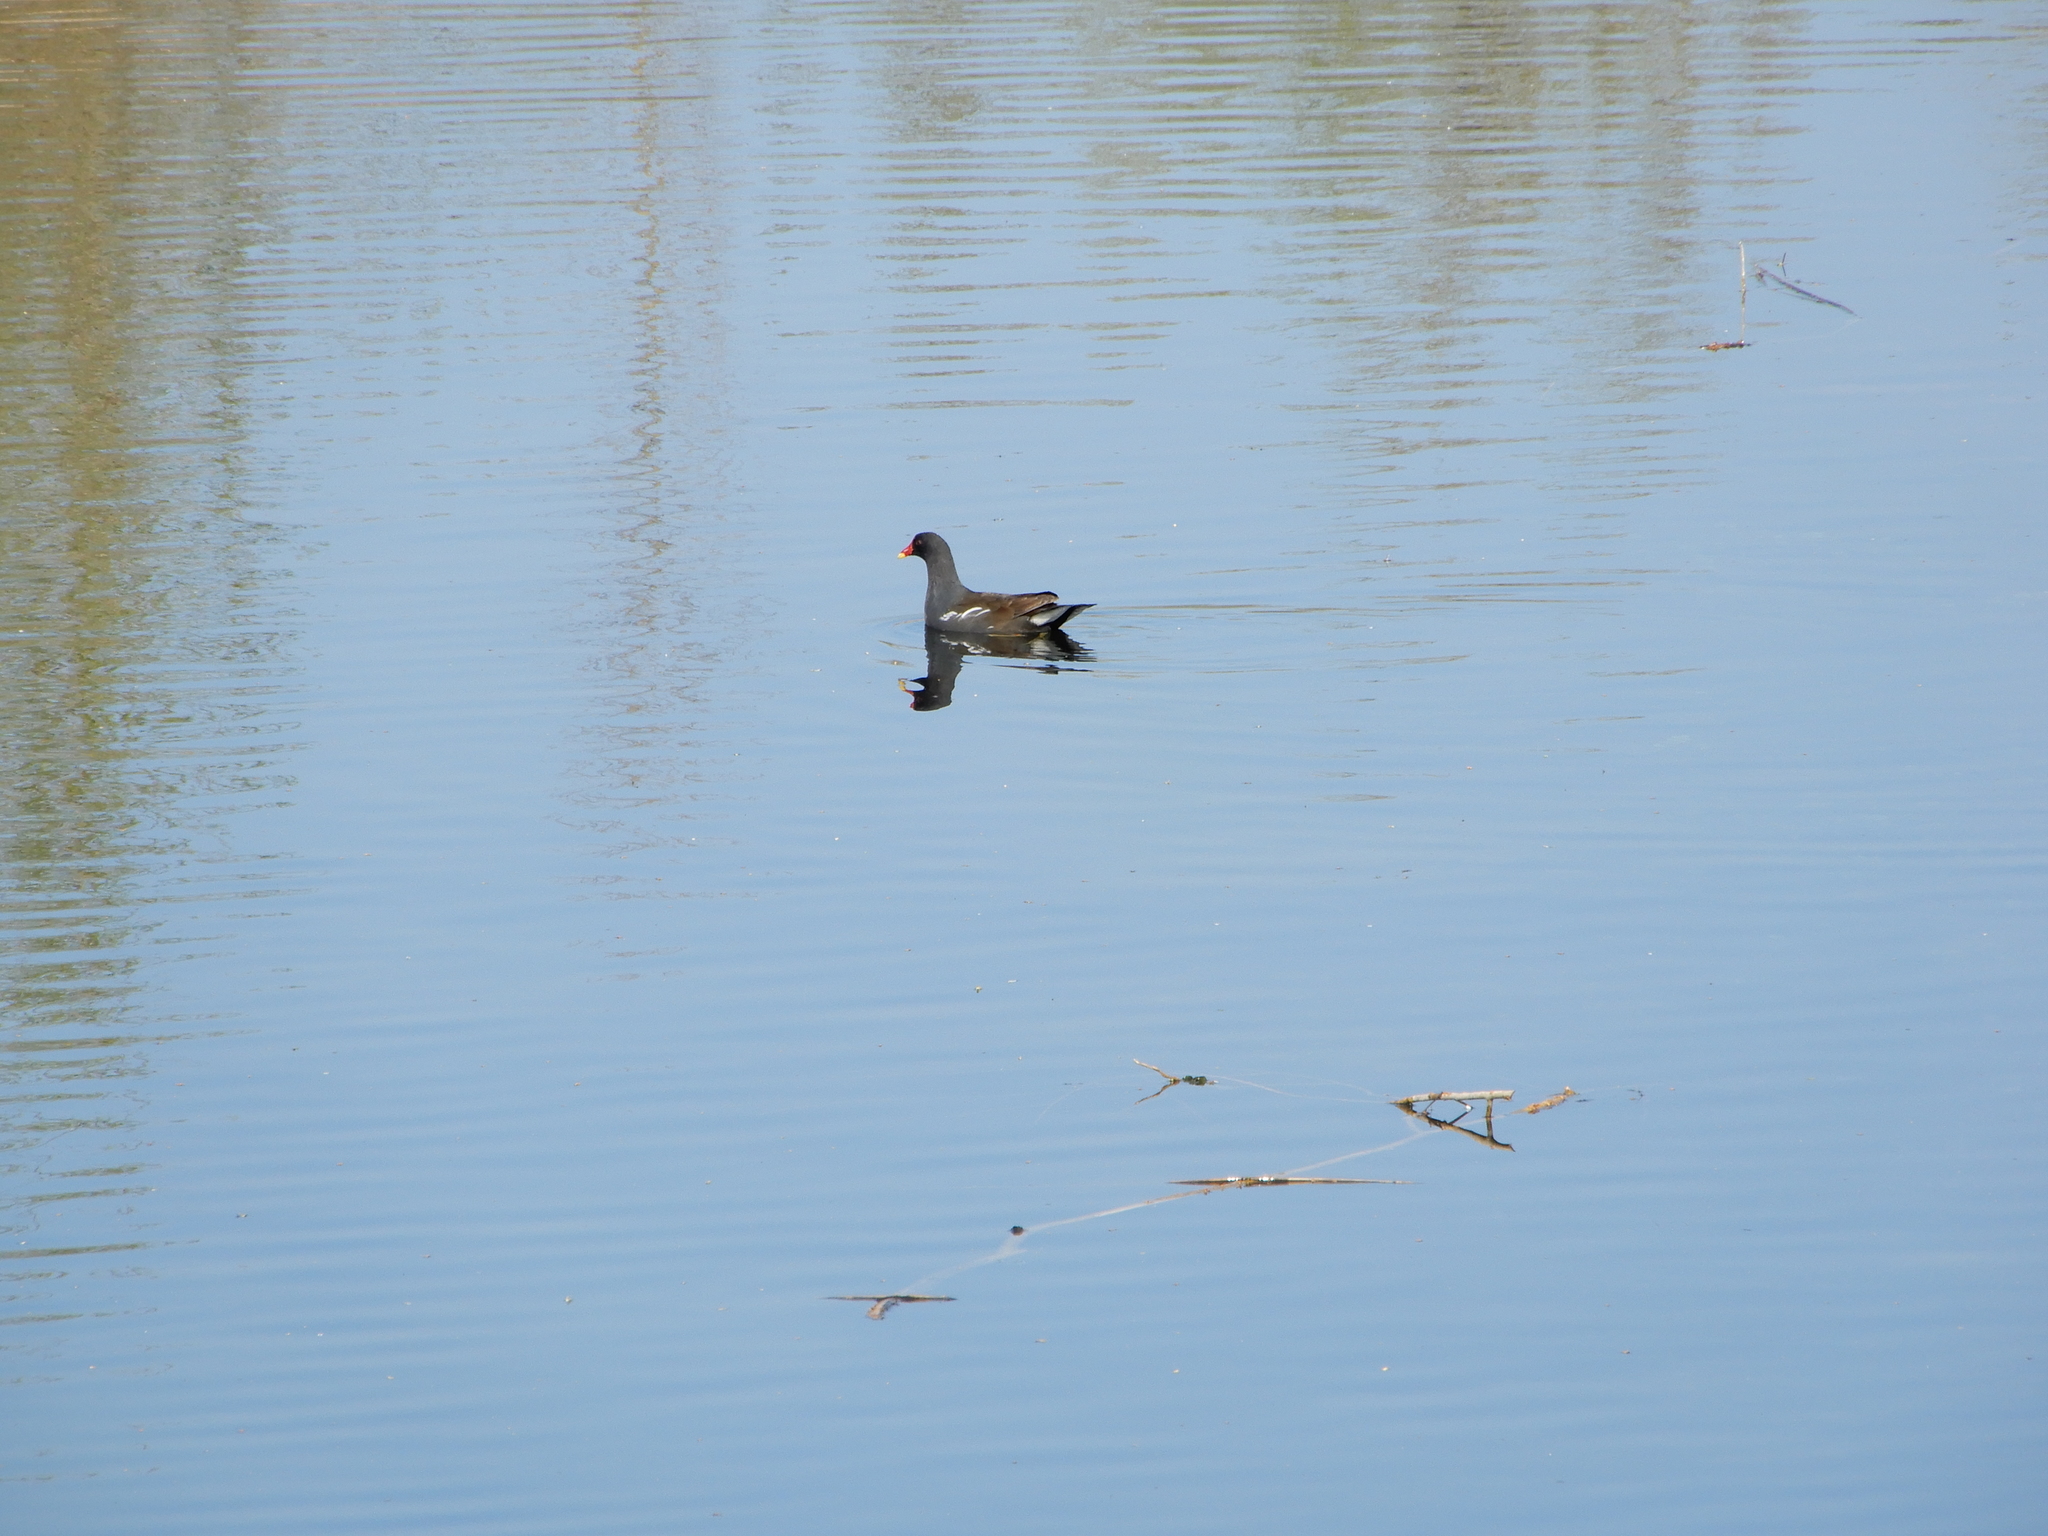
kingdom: Animalia
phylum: Chordata
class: Aves
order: Gruiformes
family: Rallidae
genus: Gallinula
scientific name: Gallinula chloropus
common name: Common moorhen
